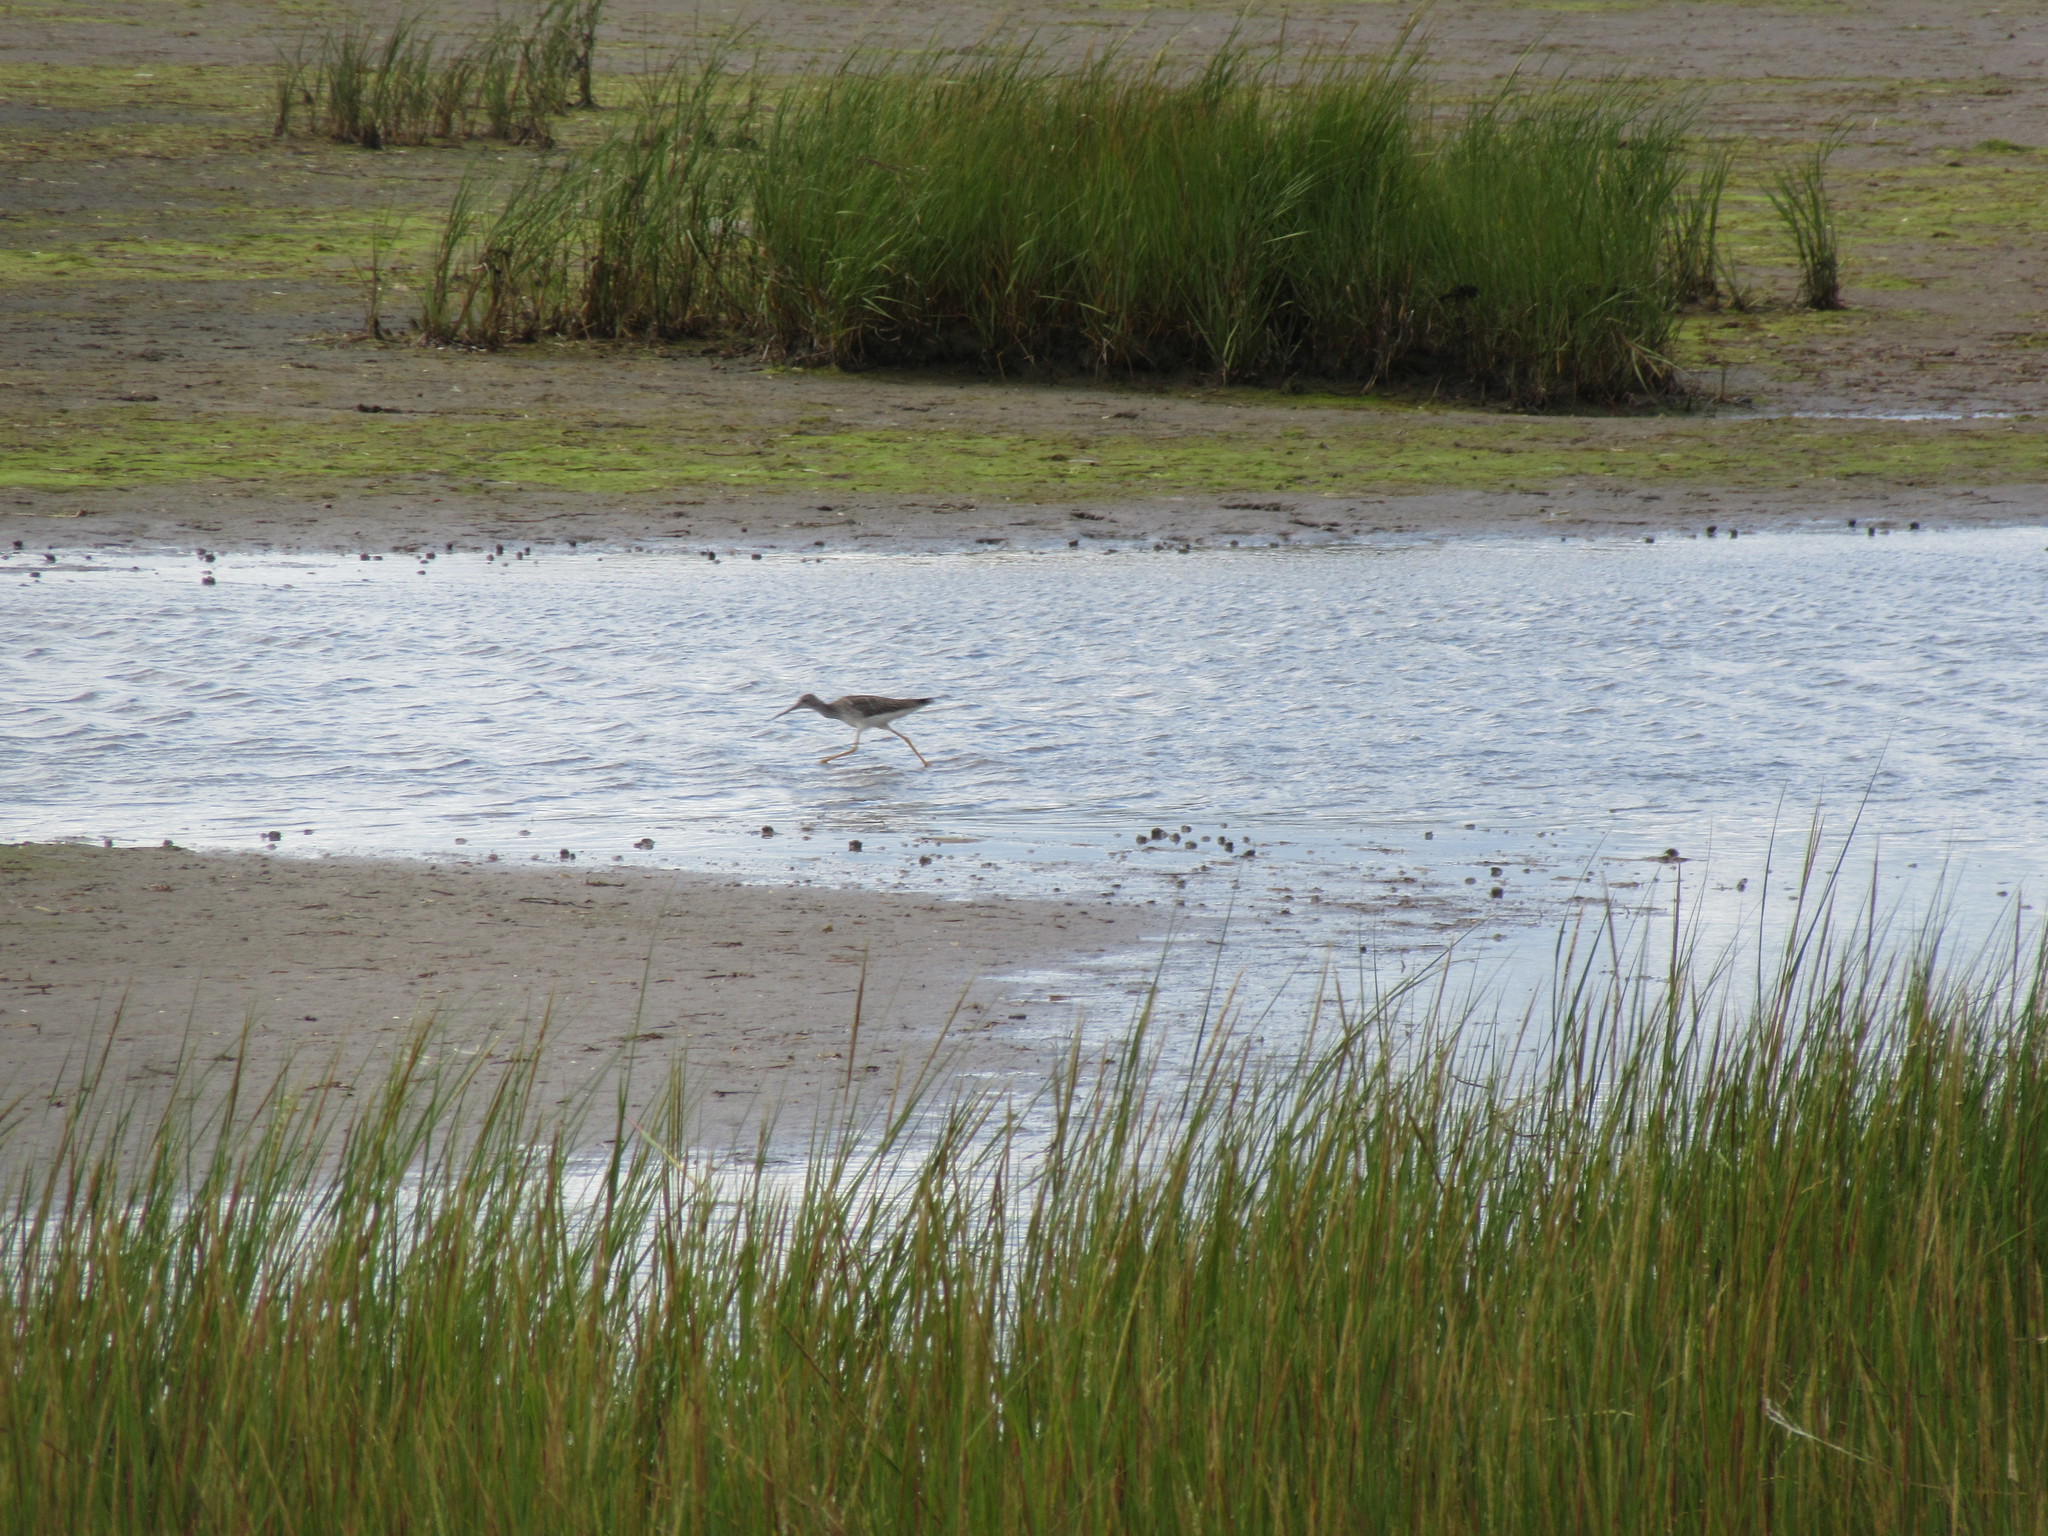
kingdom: Animalia
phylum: Chordata
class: Aves
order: Charadriiformes
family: Scolopacidae
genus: Tringa
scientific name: Tringa melanoleuca
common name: Greater yellowlegs
